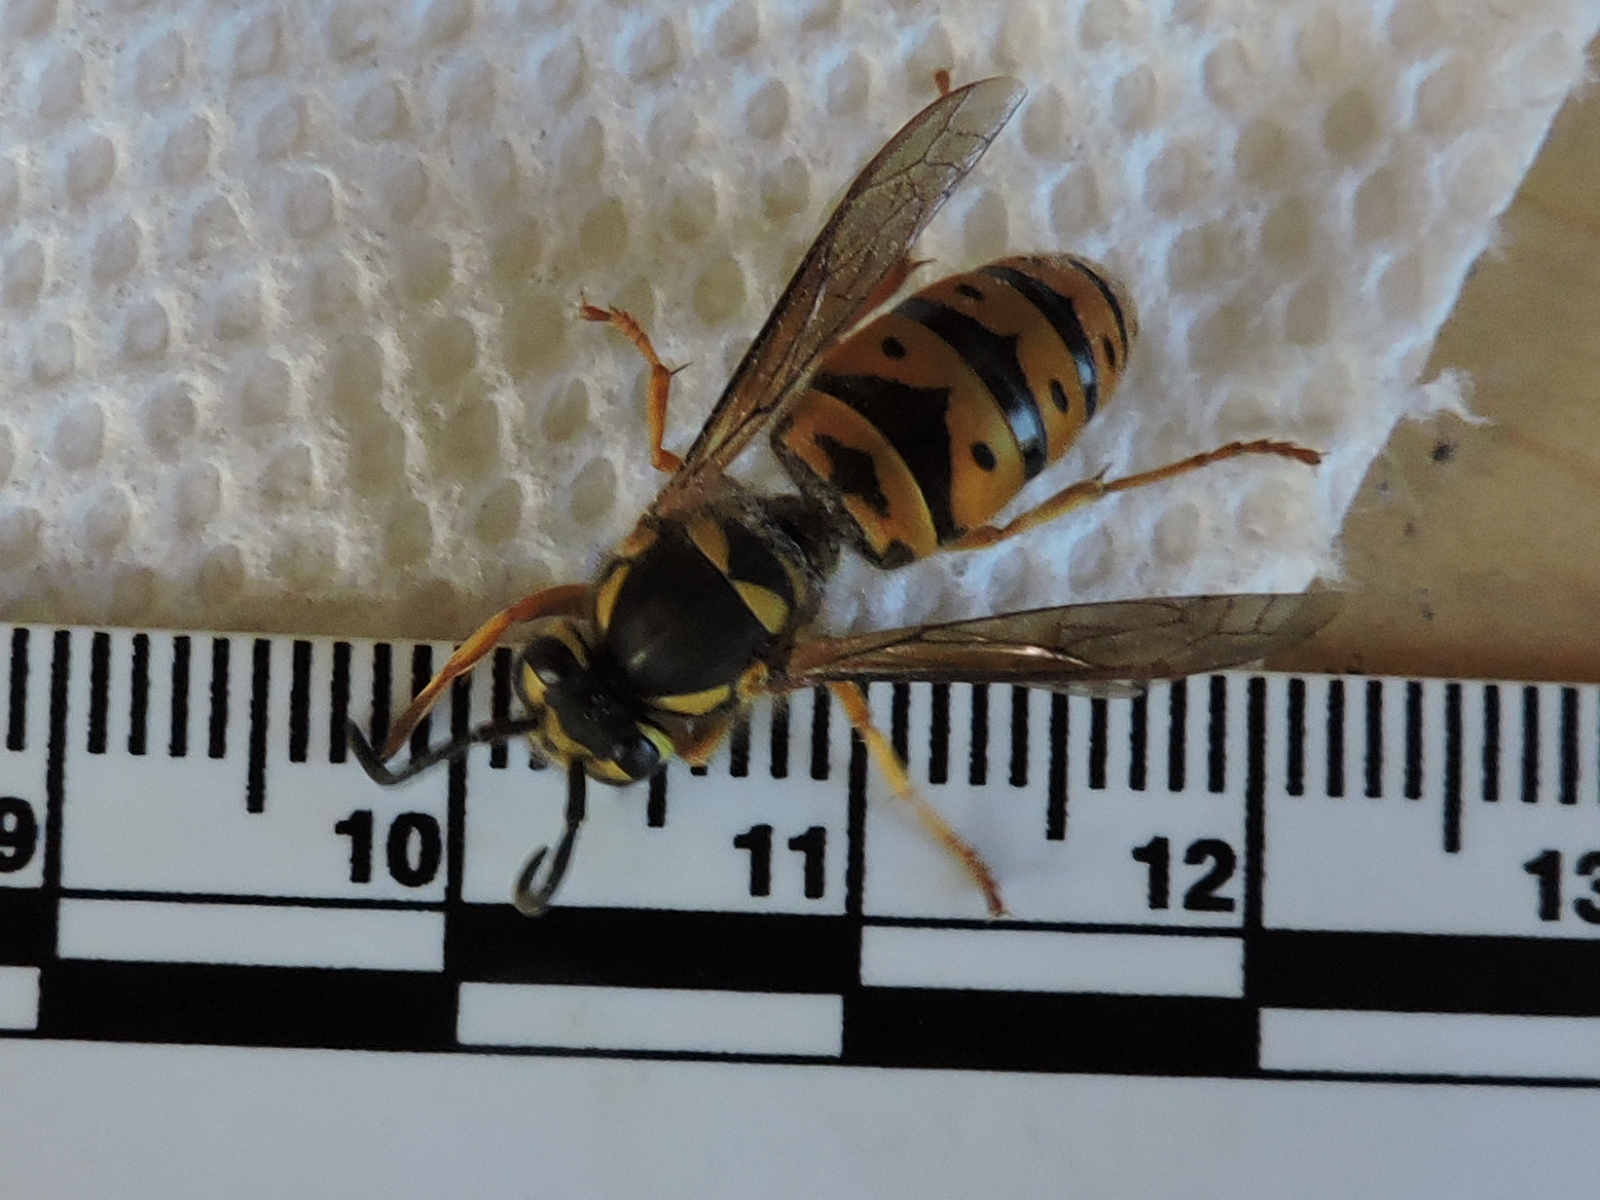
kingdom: Animalia
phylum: Arthropoda
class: Insecta
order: Hymenoptera
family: Vespidae
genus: Vespula
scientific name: Vespula maculifrons
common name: Eastern yellowjacket
